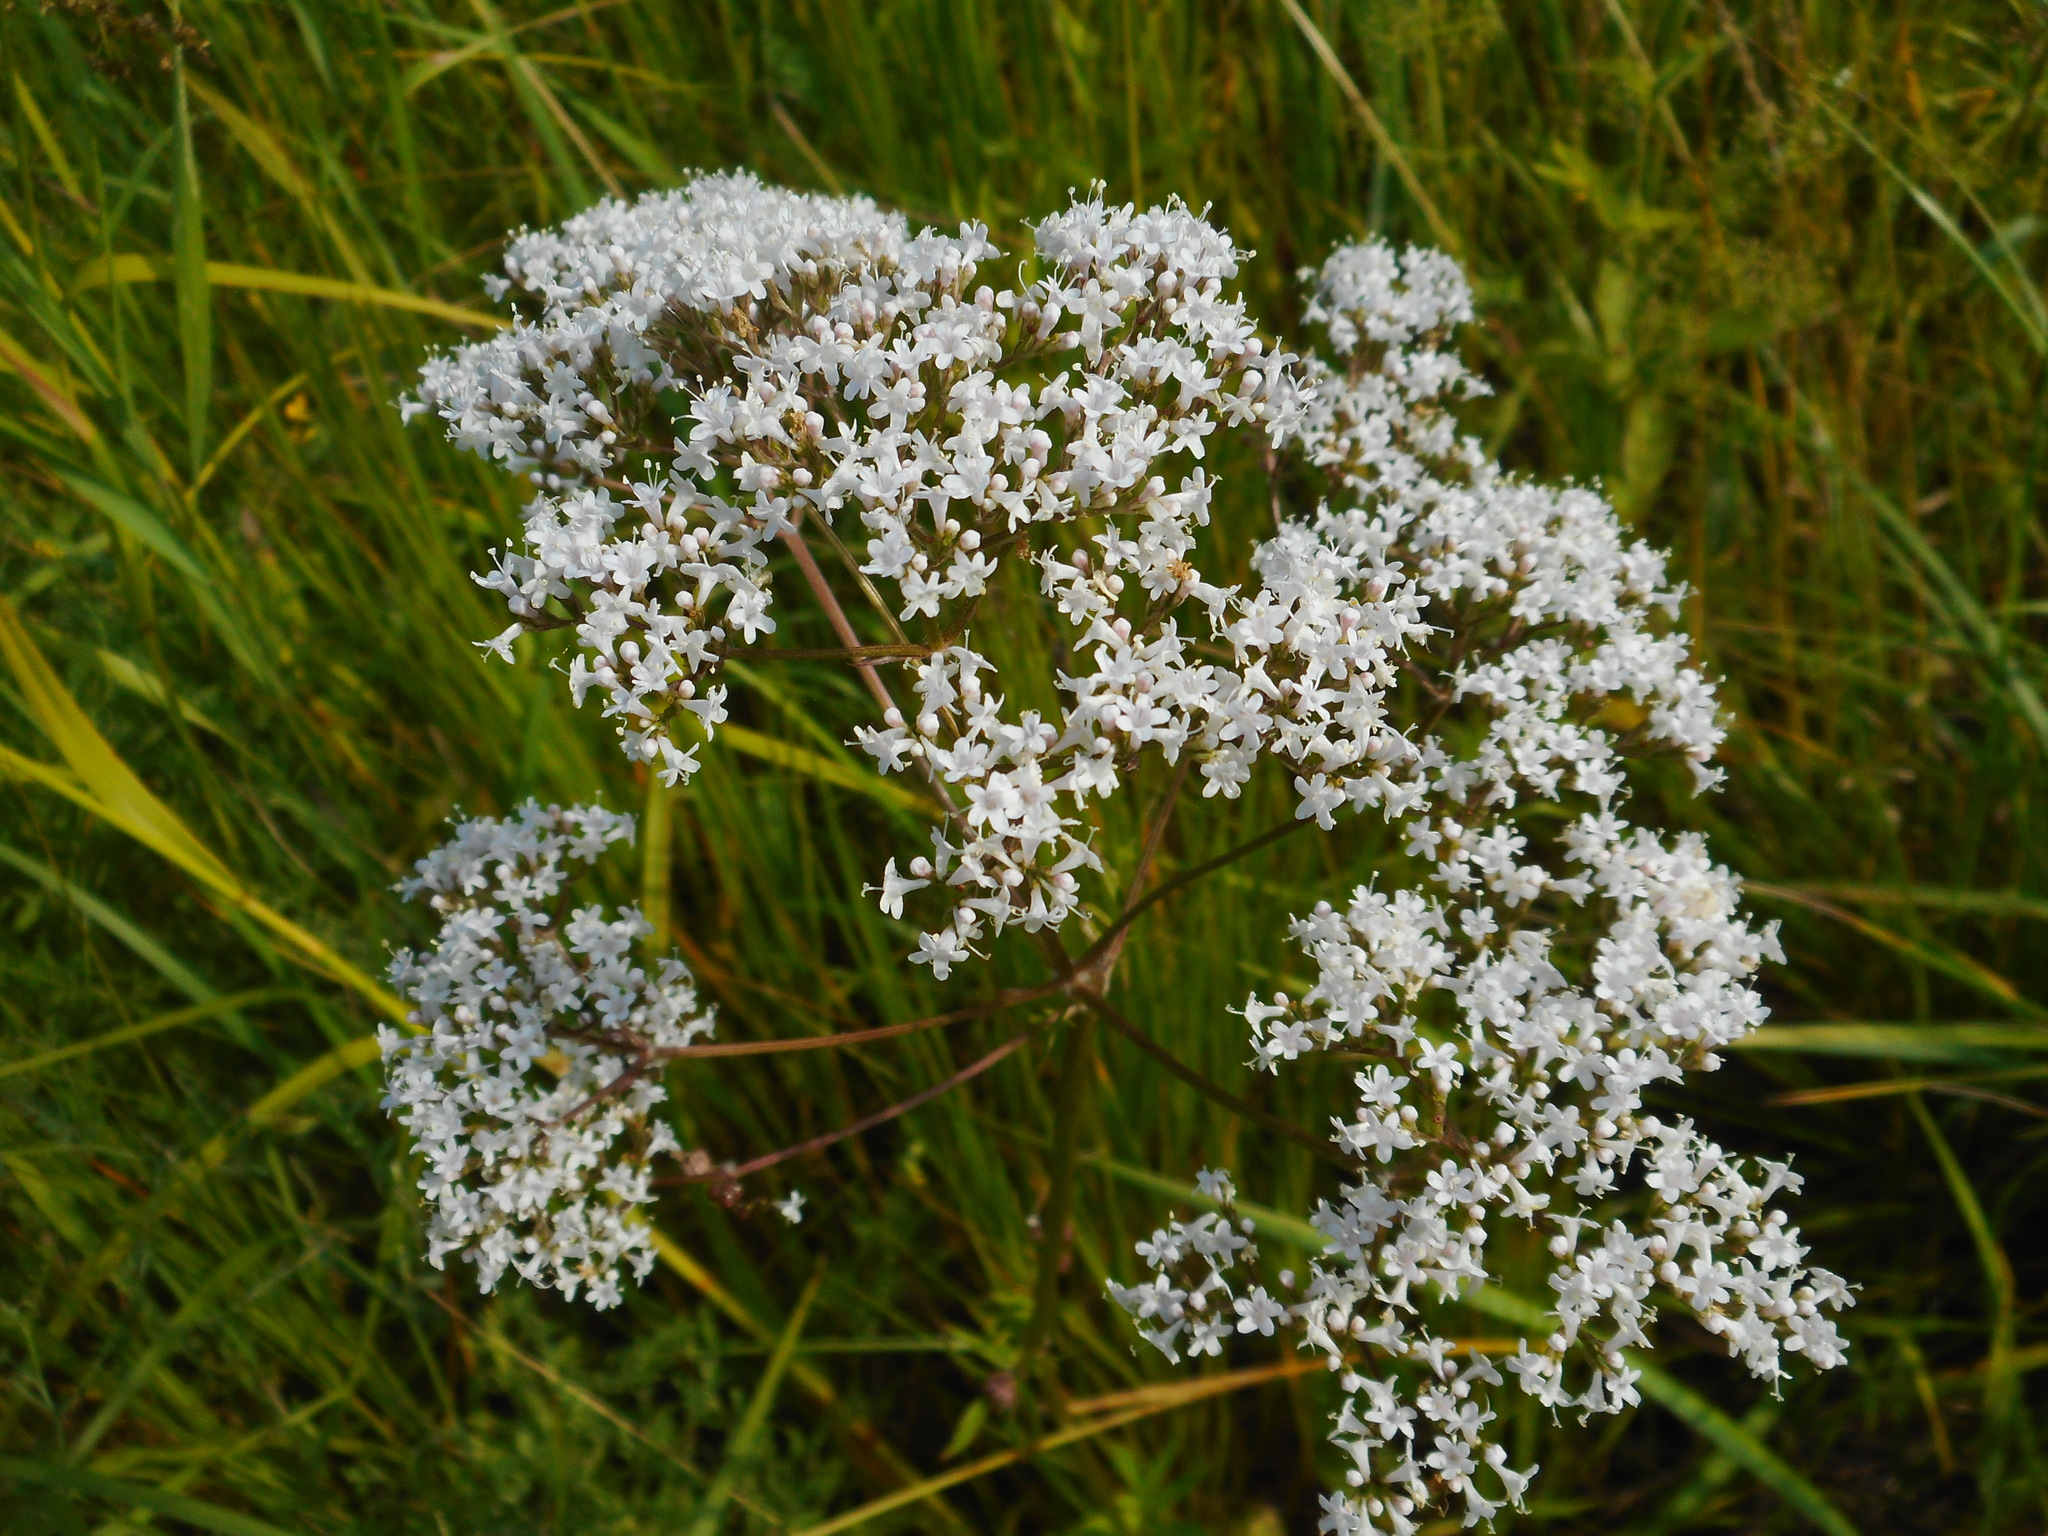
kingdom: Plantae
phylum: Tracheophyta
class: Magnoliopsida
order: Dipsacales
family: Caprifoliaceae
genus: Valeriana
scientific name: Valeriana officinalis
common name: Common valerian
